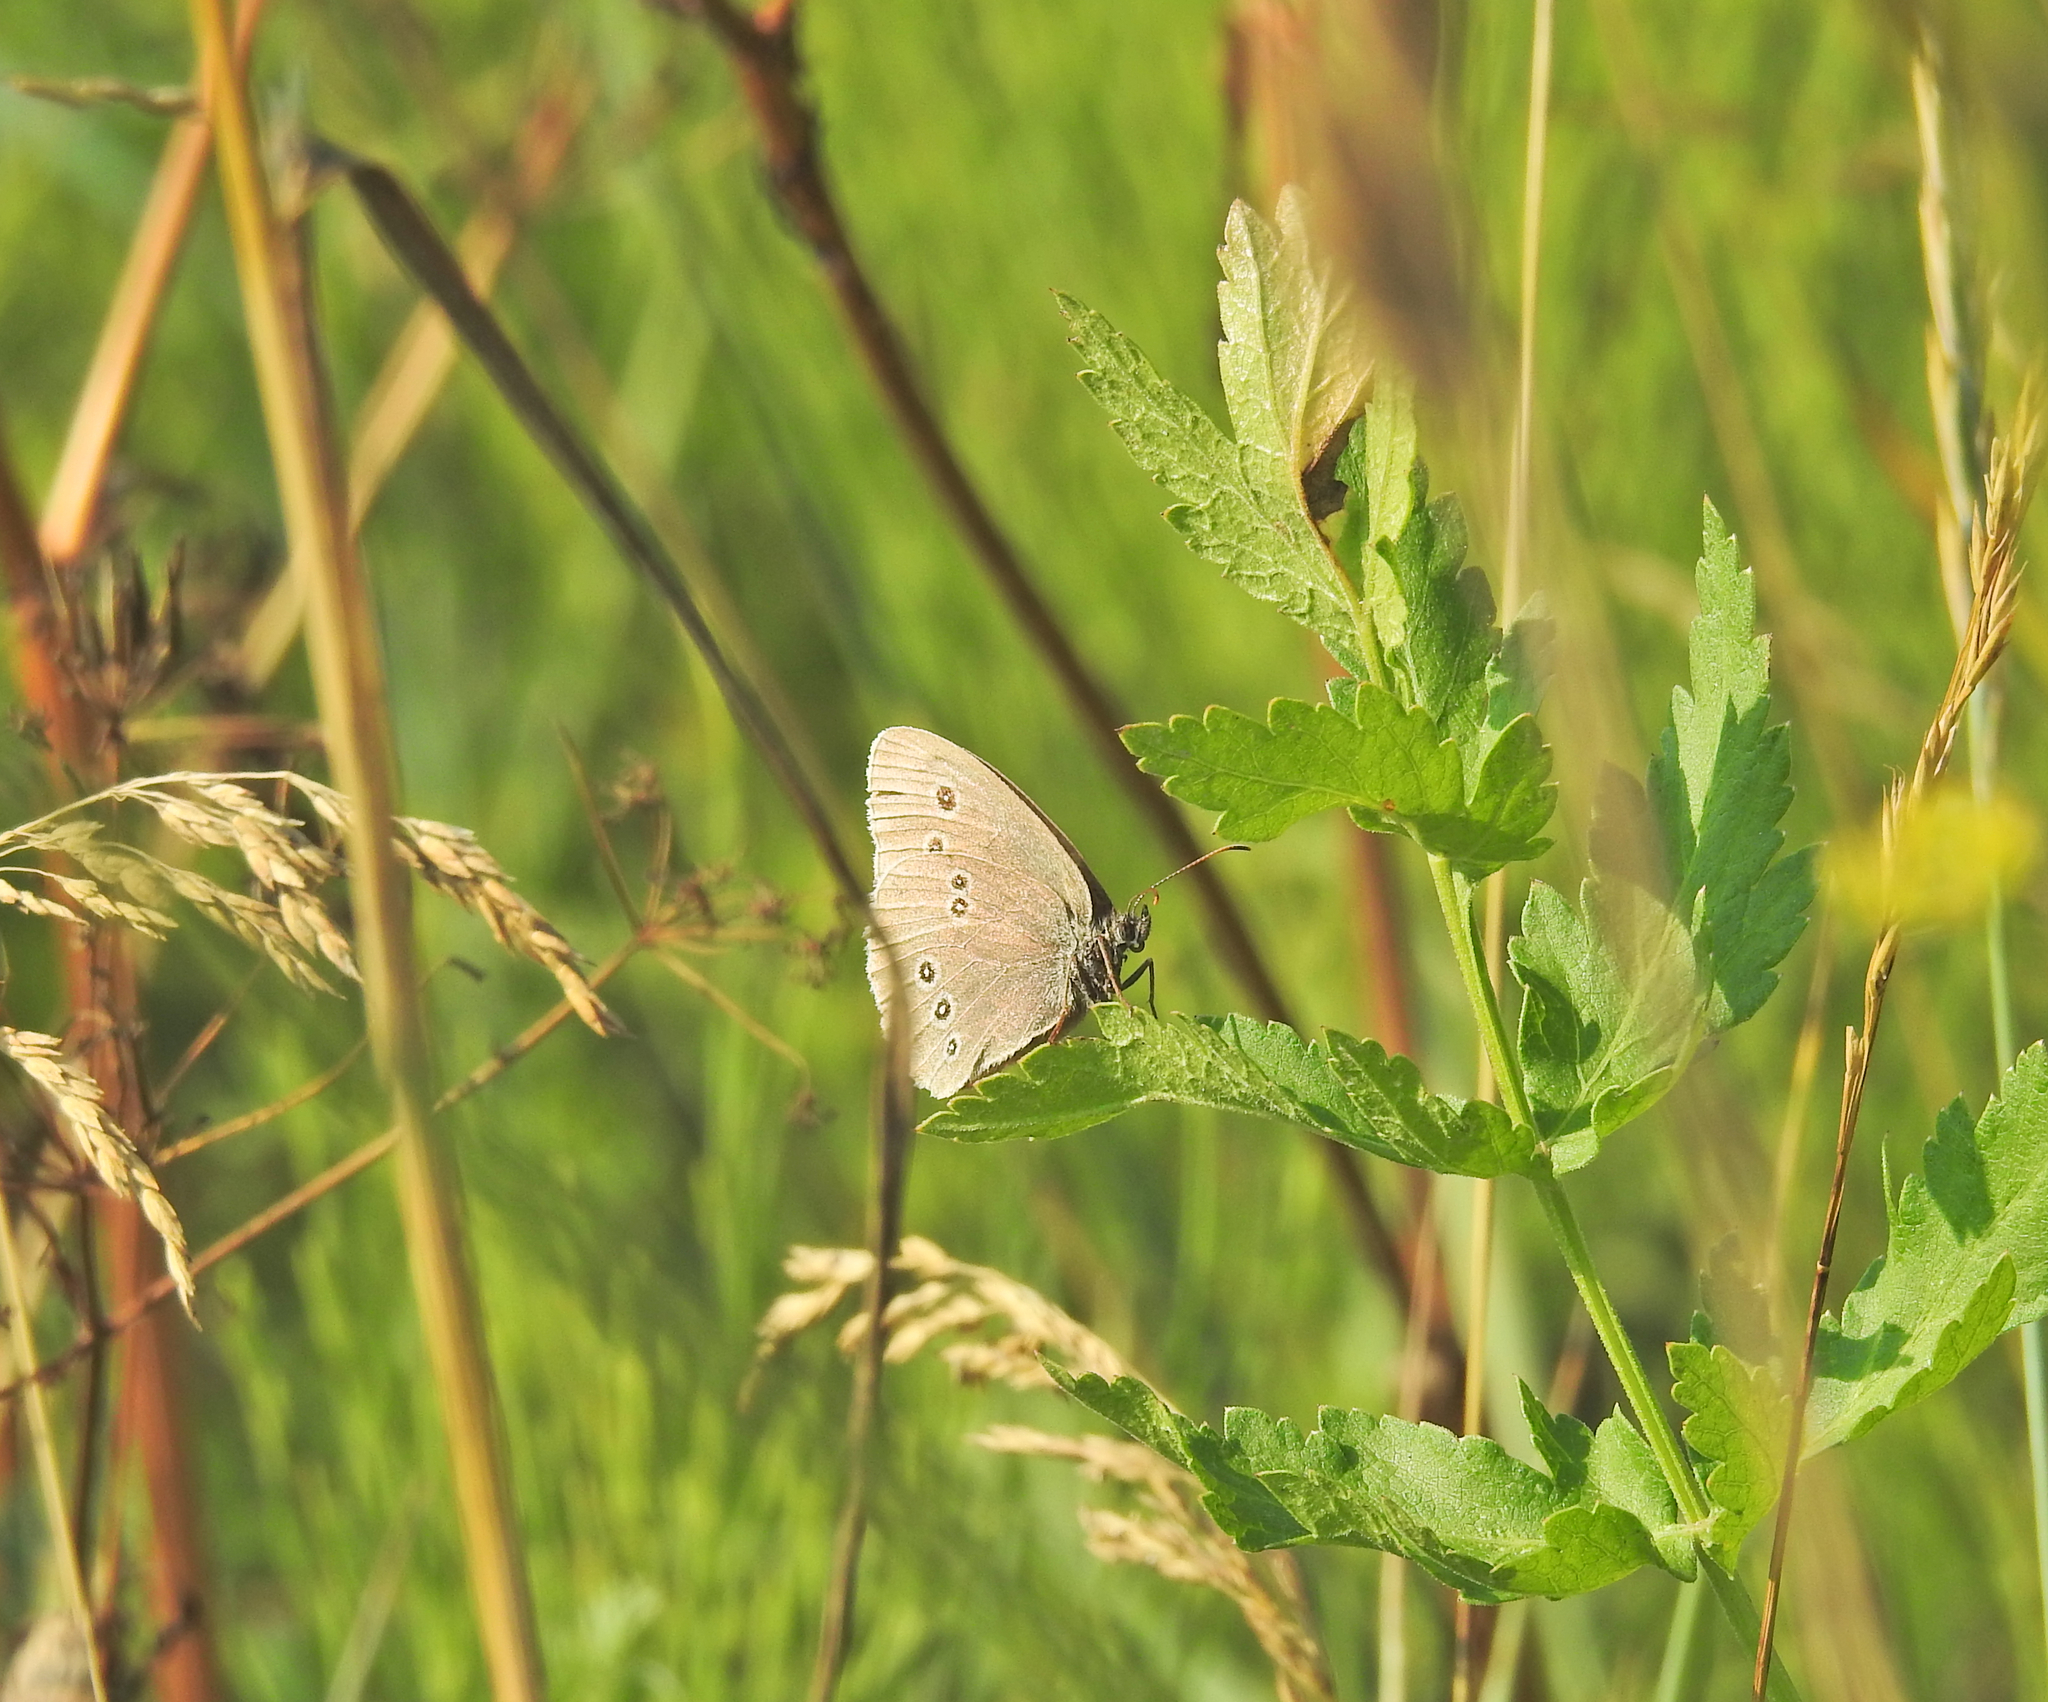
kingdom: Animalia
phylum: Arthropoda
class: Insecta
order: Lepidoptera
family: Nymphalidae
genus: Aphantopus
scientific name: Aphantopus hyperantus
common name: Ringlet
